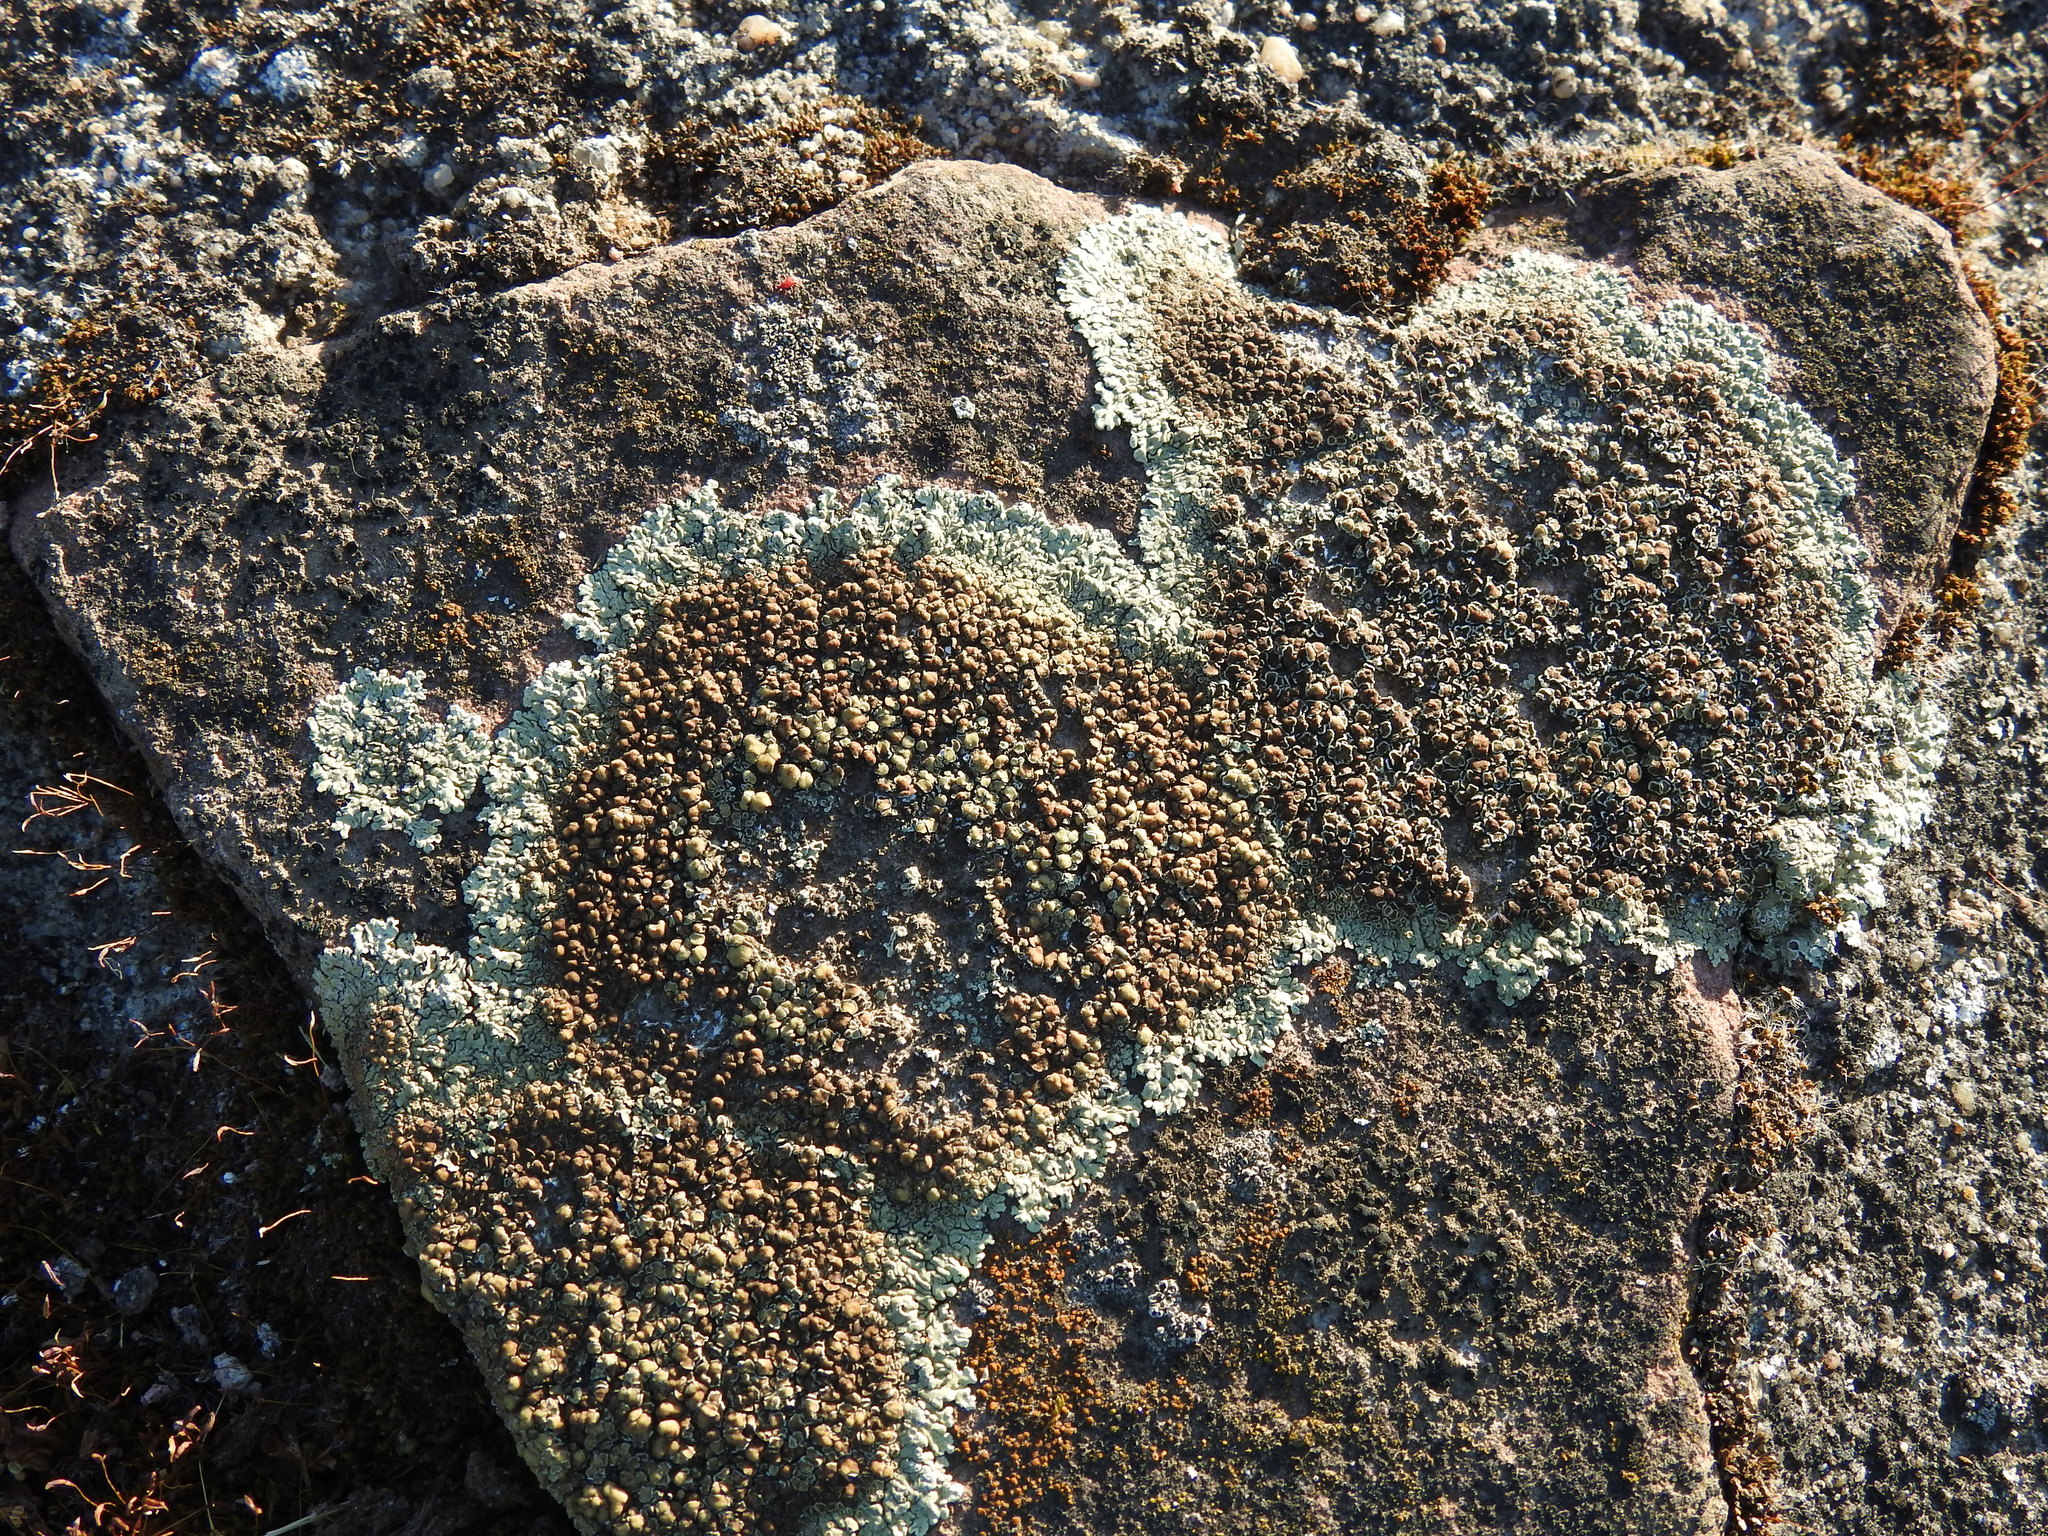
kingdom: Fungi
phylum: Ascomycota
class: Lecanoromycetes
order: Lecanorales
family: Lecanoraceae
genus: Protoparmeliopsis
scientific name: Protoparmeliopsis muralis
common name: Stonewall rim lichen
